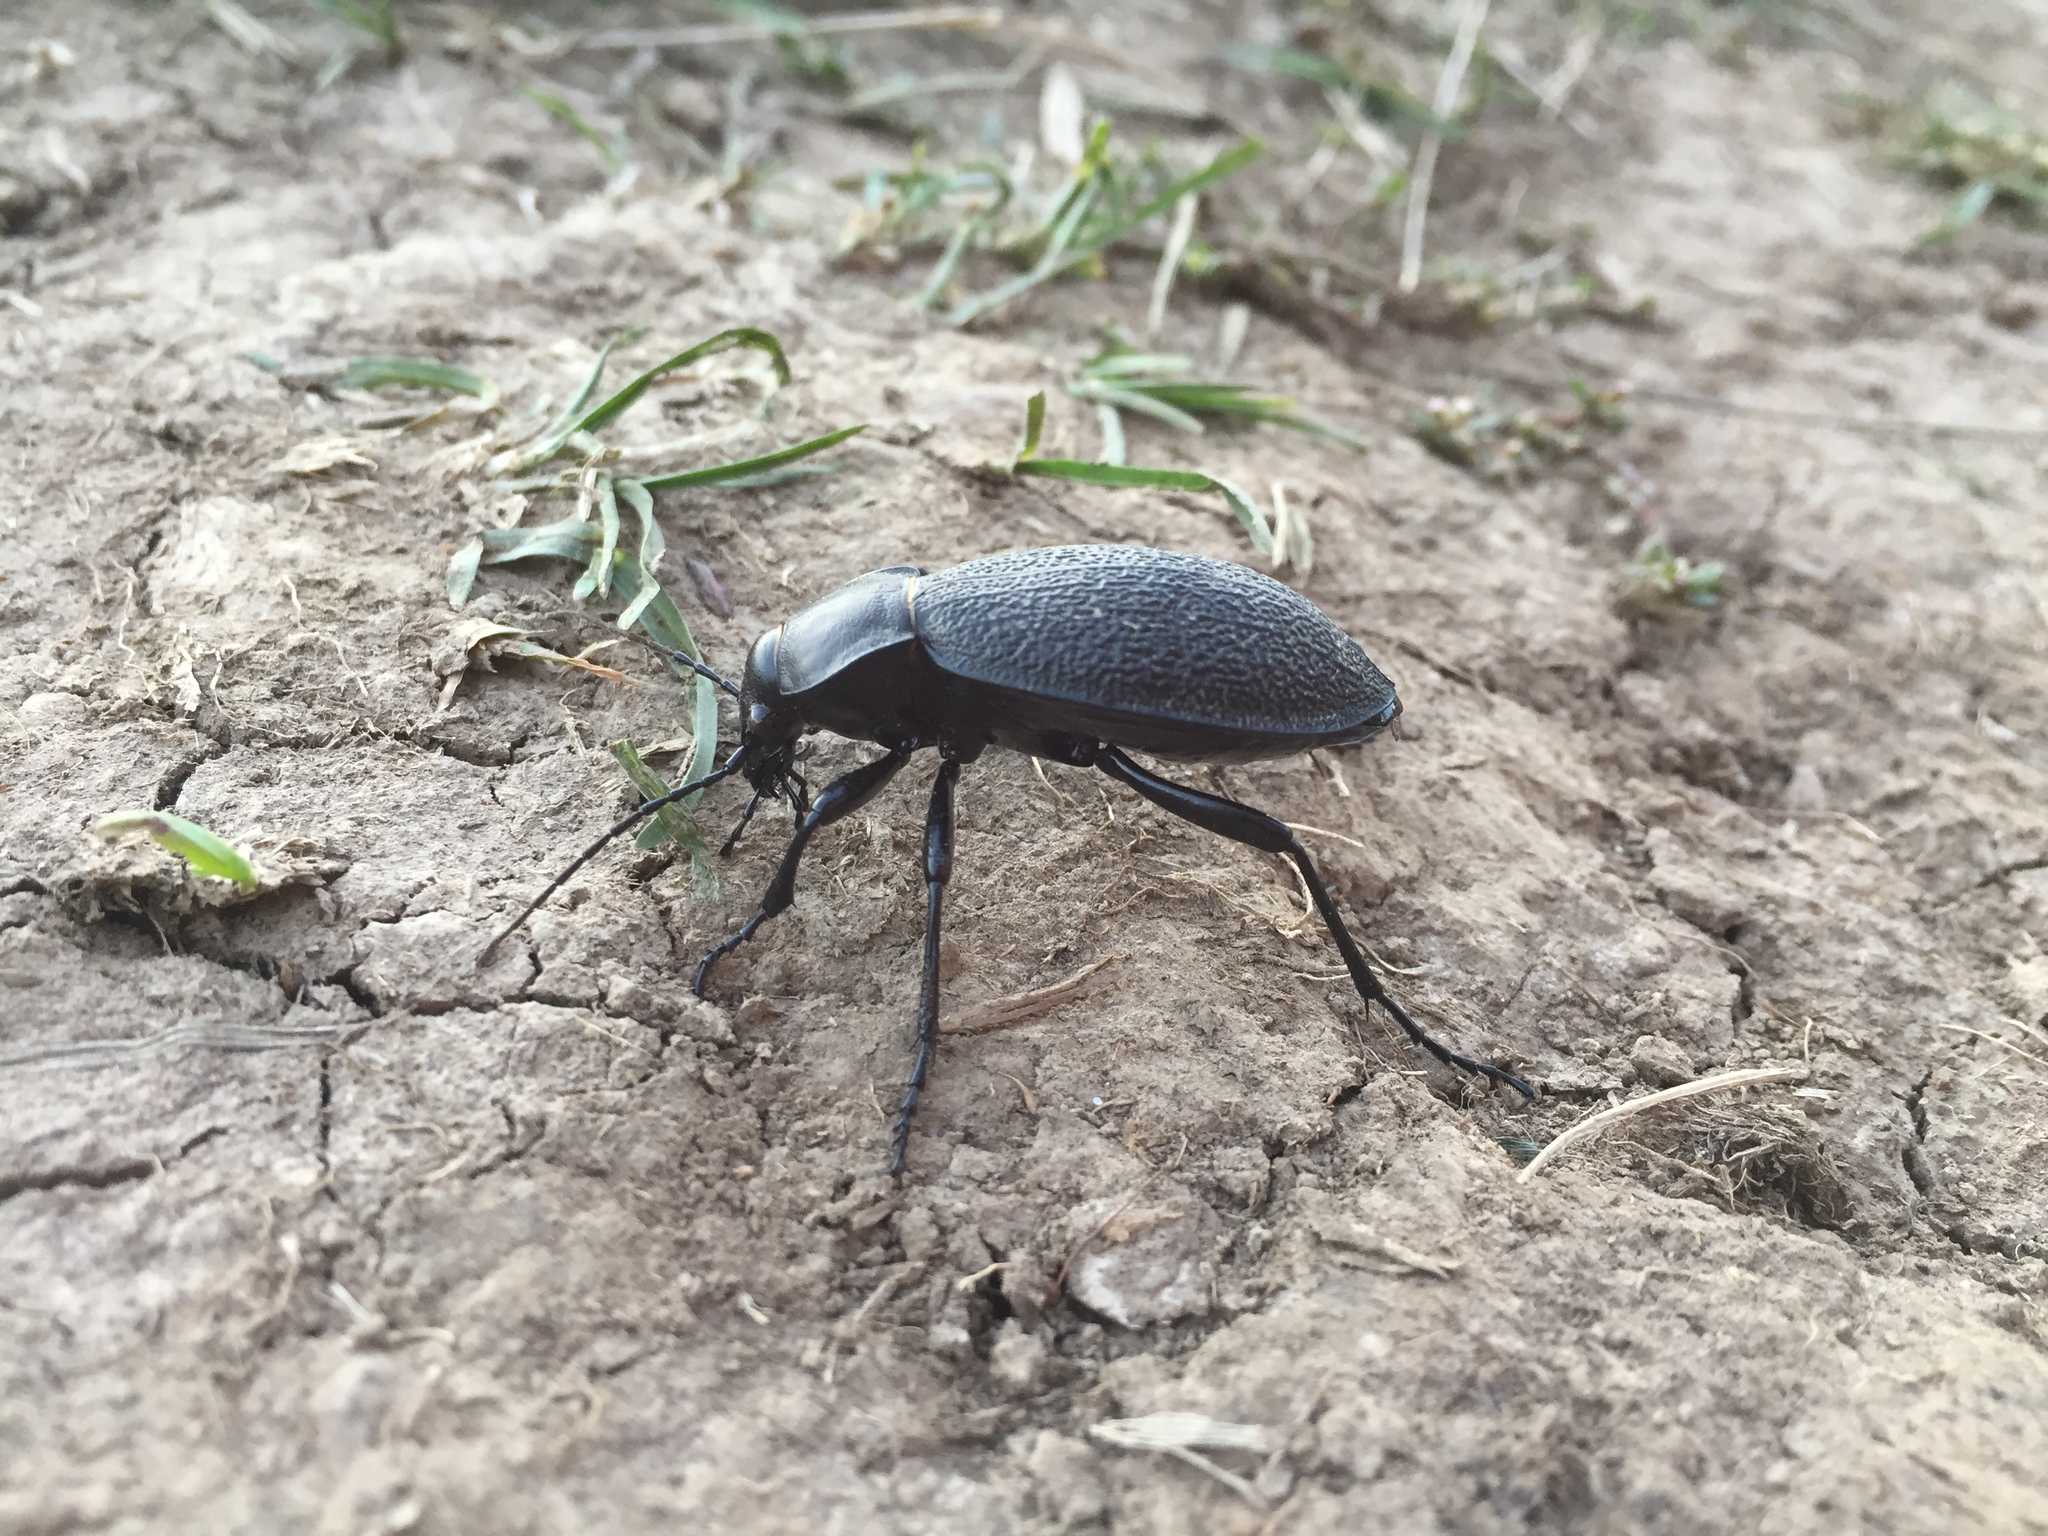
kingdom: Animalia
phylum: Arthropoda
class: Insecta
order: Coleoptera
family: Carabidae
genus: Carabus
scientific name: Carabus coriaceus
